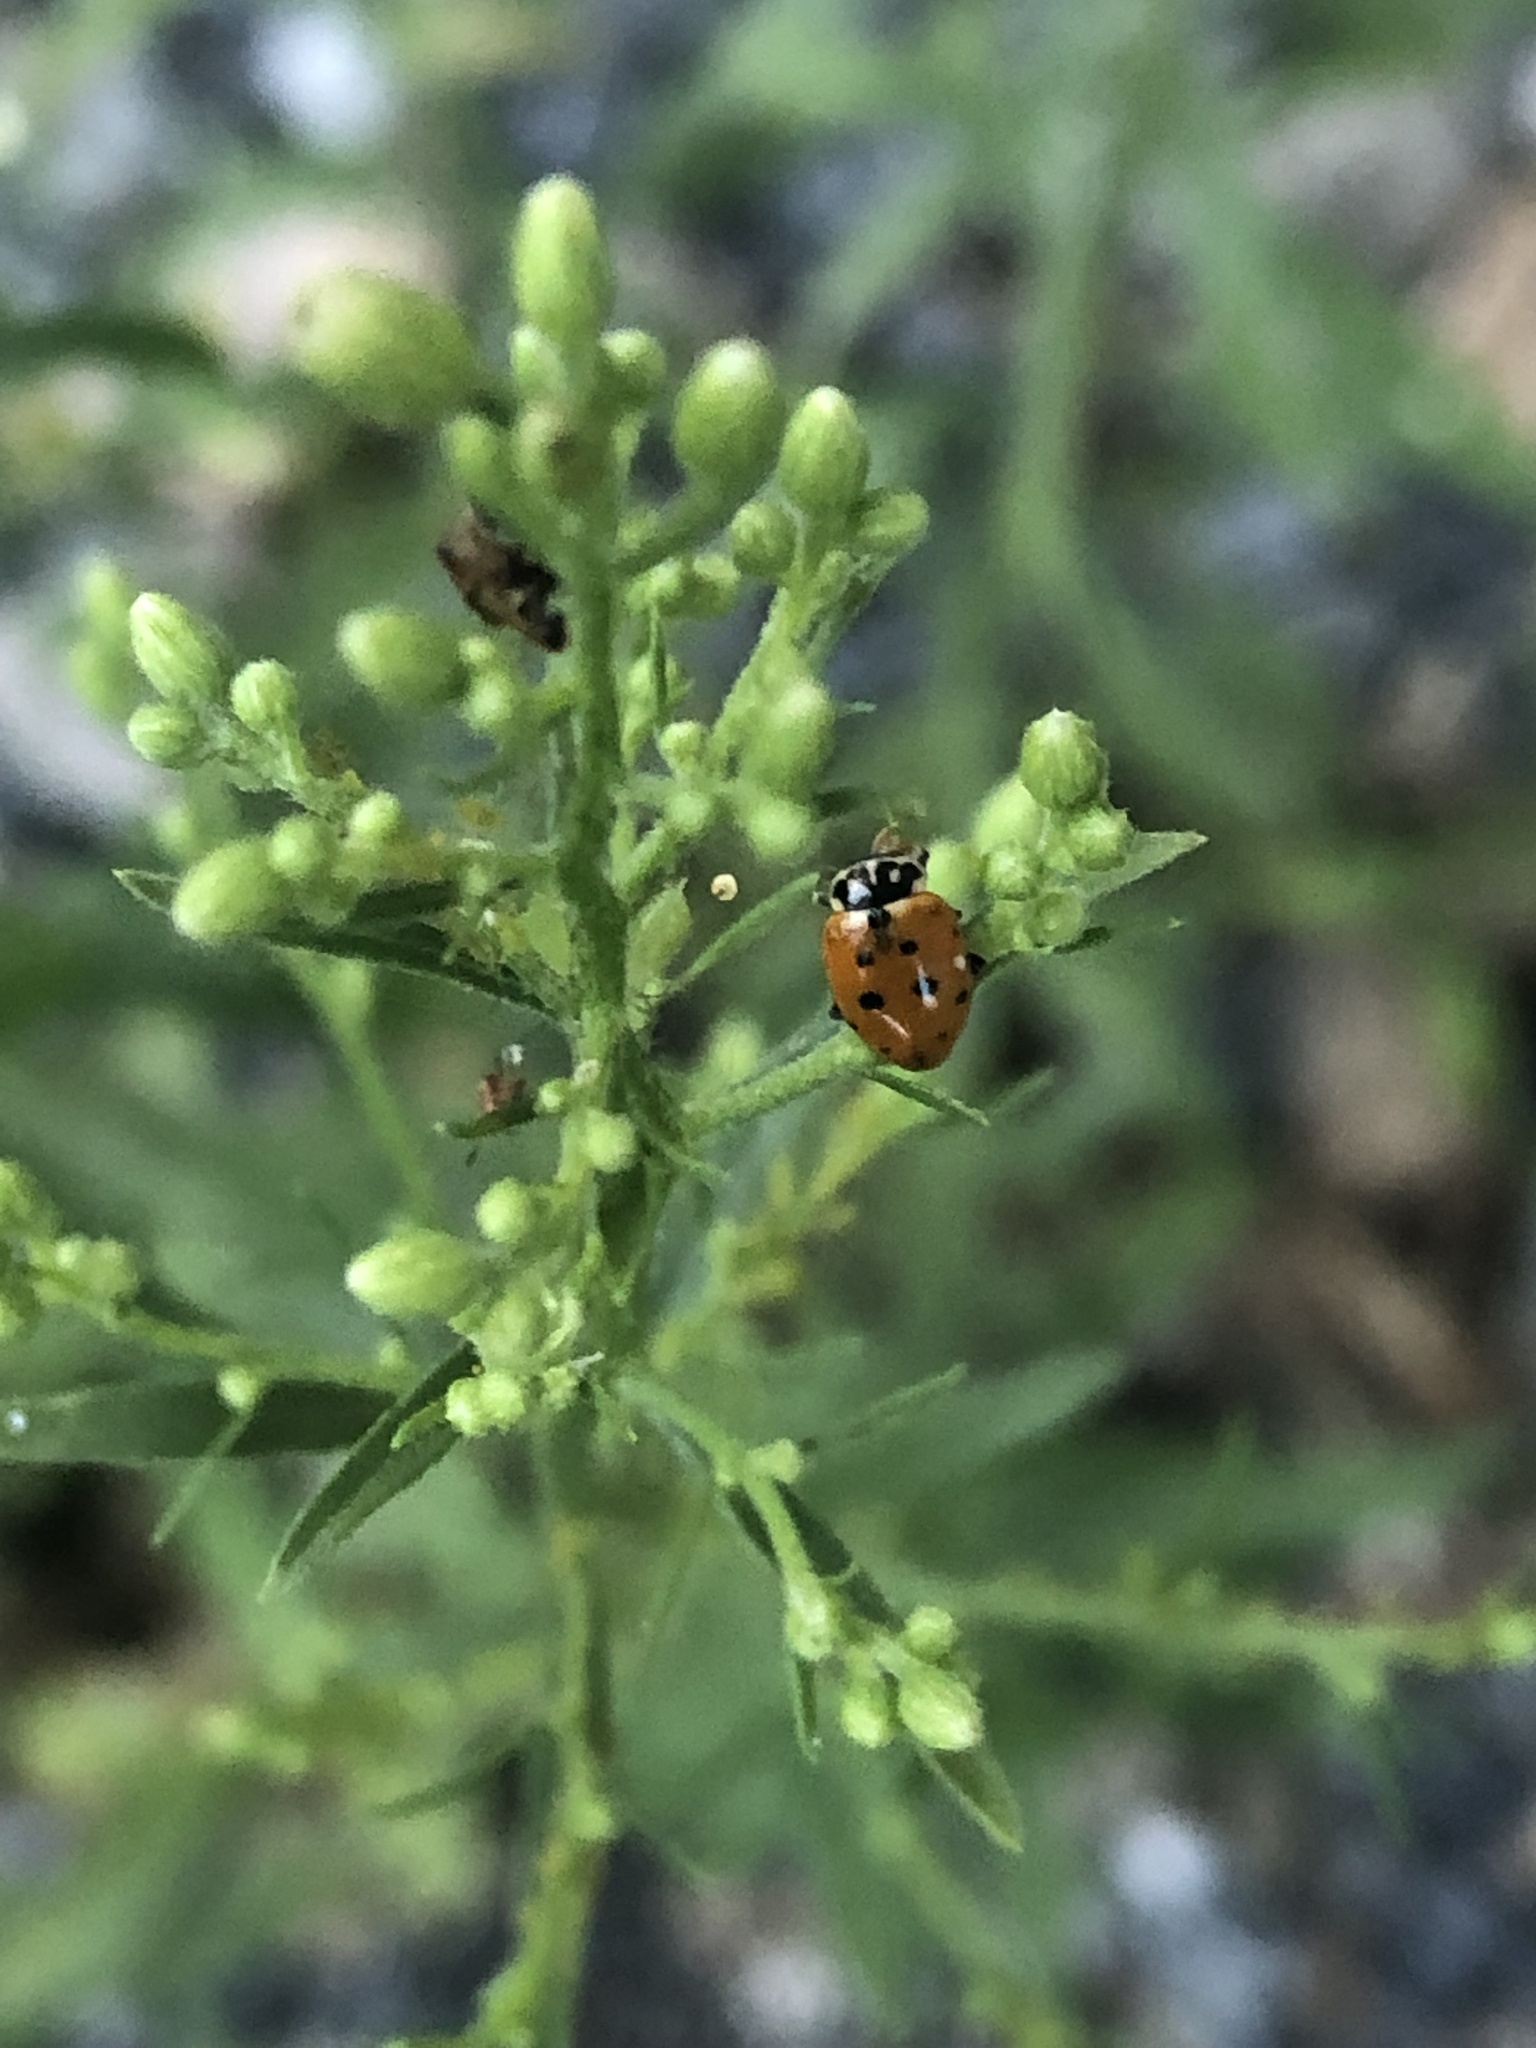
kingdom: Animalia
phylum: Arthropoda
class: Insecta
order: Coleoptera
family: Coccinellidae
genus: Hippodamia
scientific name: Hippodamia variegata
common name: Ladybird beetle
